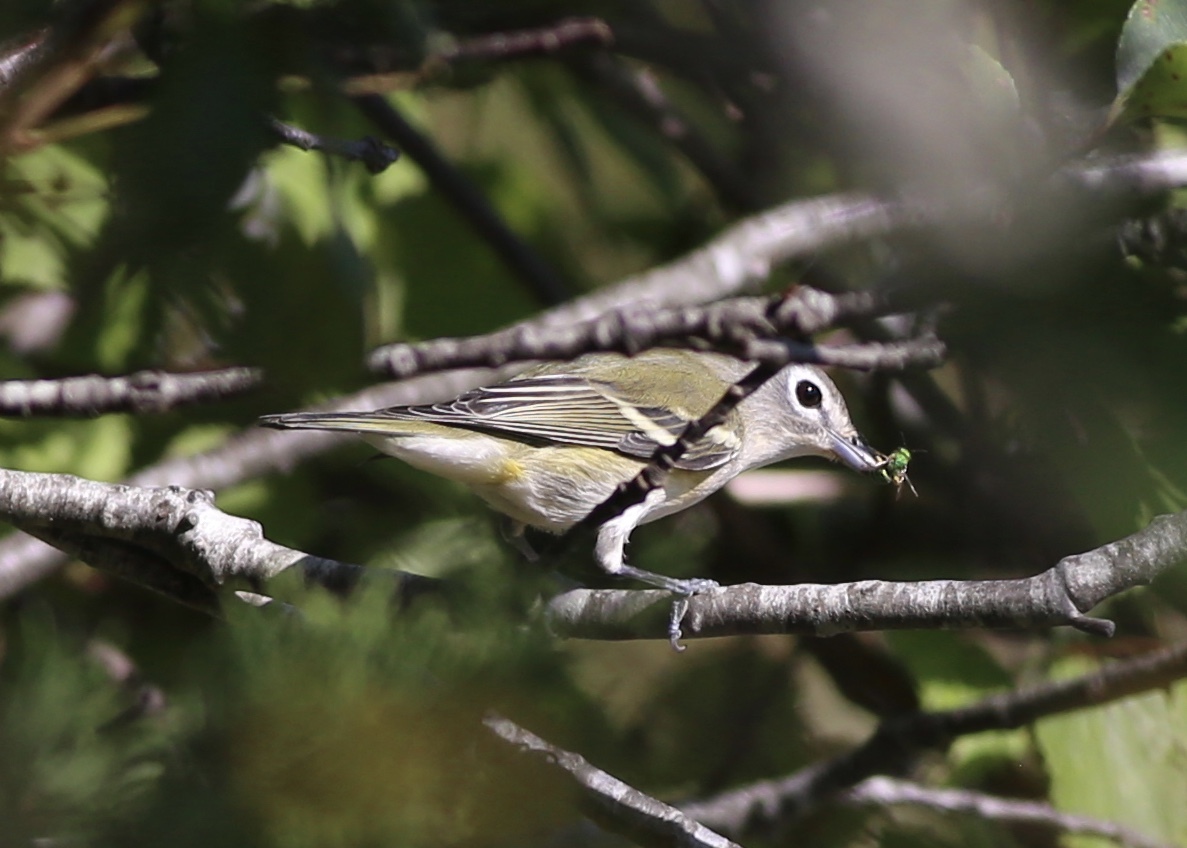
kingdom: Animalia
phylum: Chordata
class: Aves
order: Passeriformes
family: Vireonidae
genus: Vireo
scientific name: Vireo solitarius
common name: Blue-headed vireo
